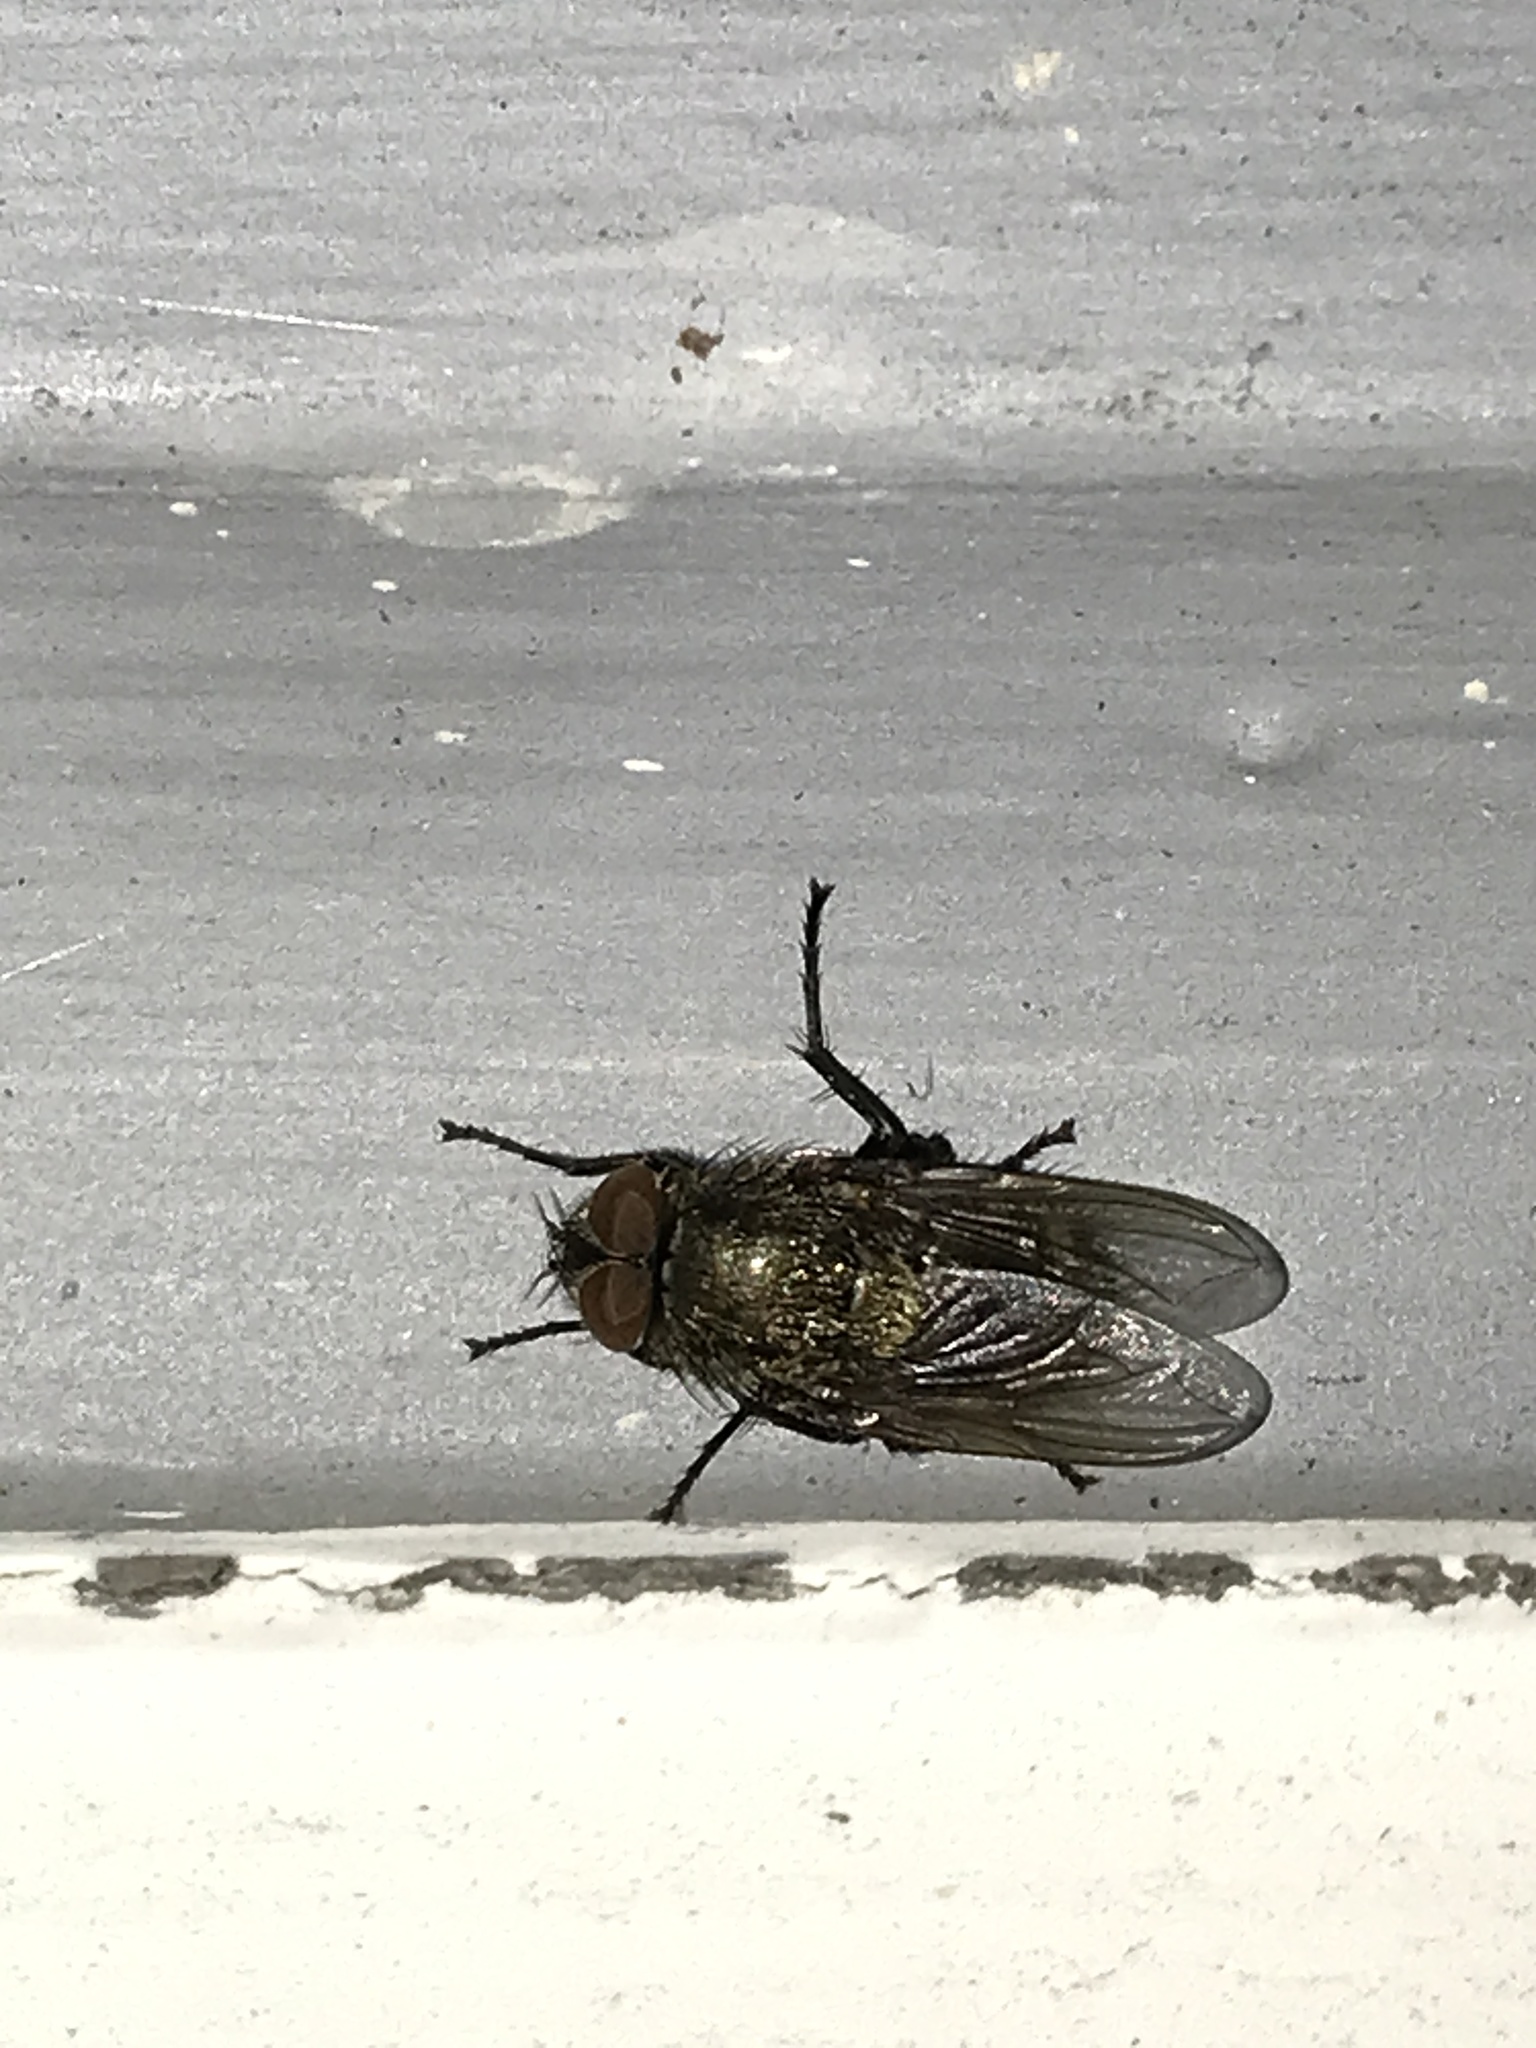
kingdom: Animalia
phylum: Arthropoda
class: Insecta
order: Diptera
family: Polleniidae
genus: Pollenia
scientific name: Pollenia
